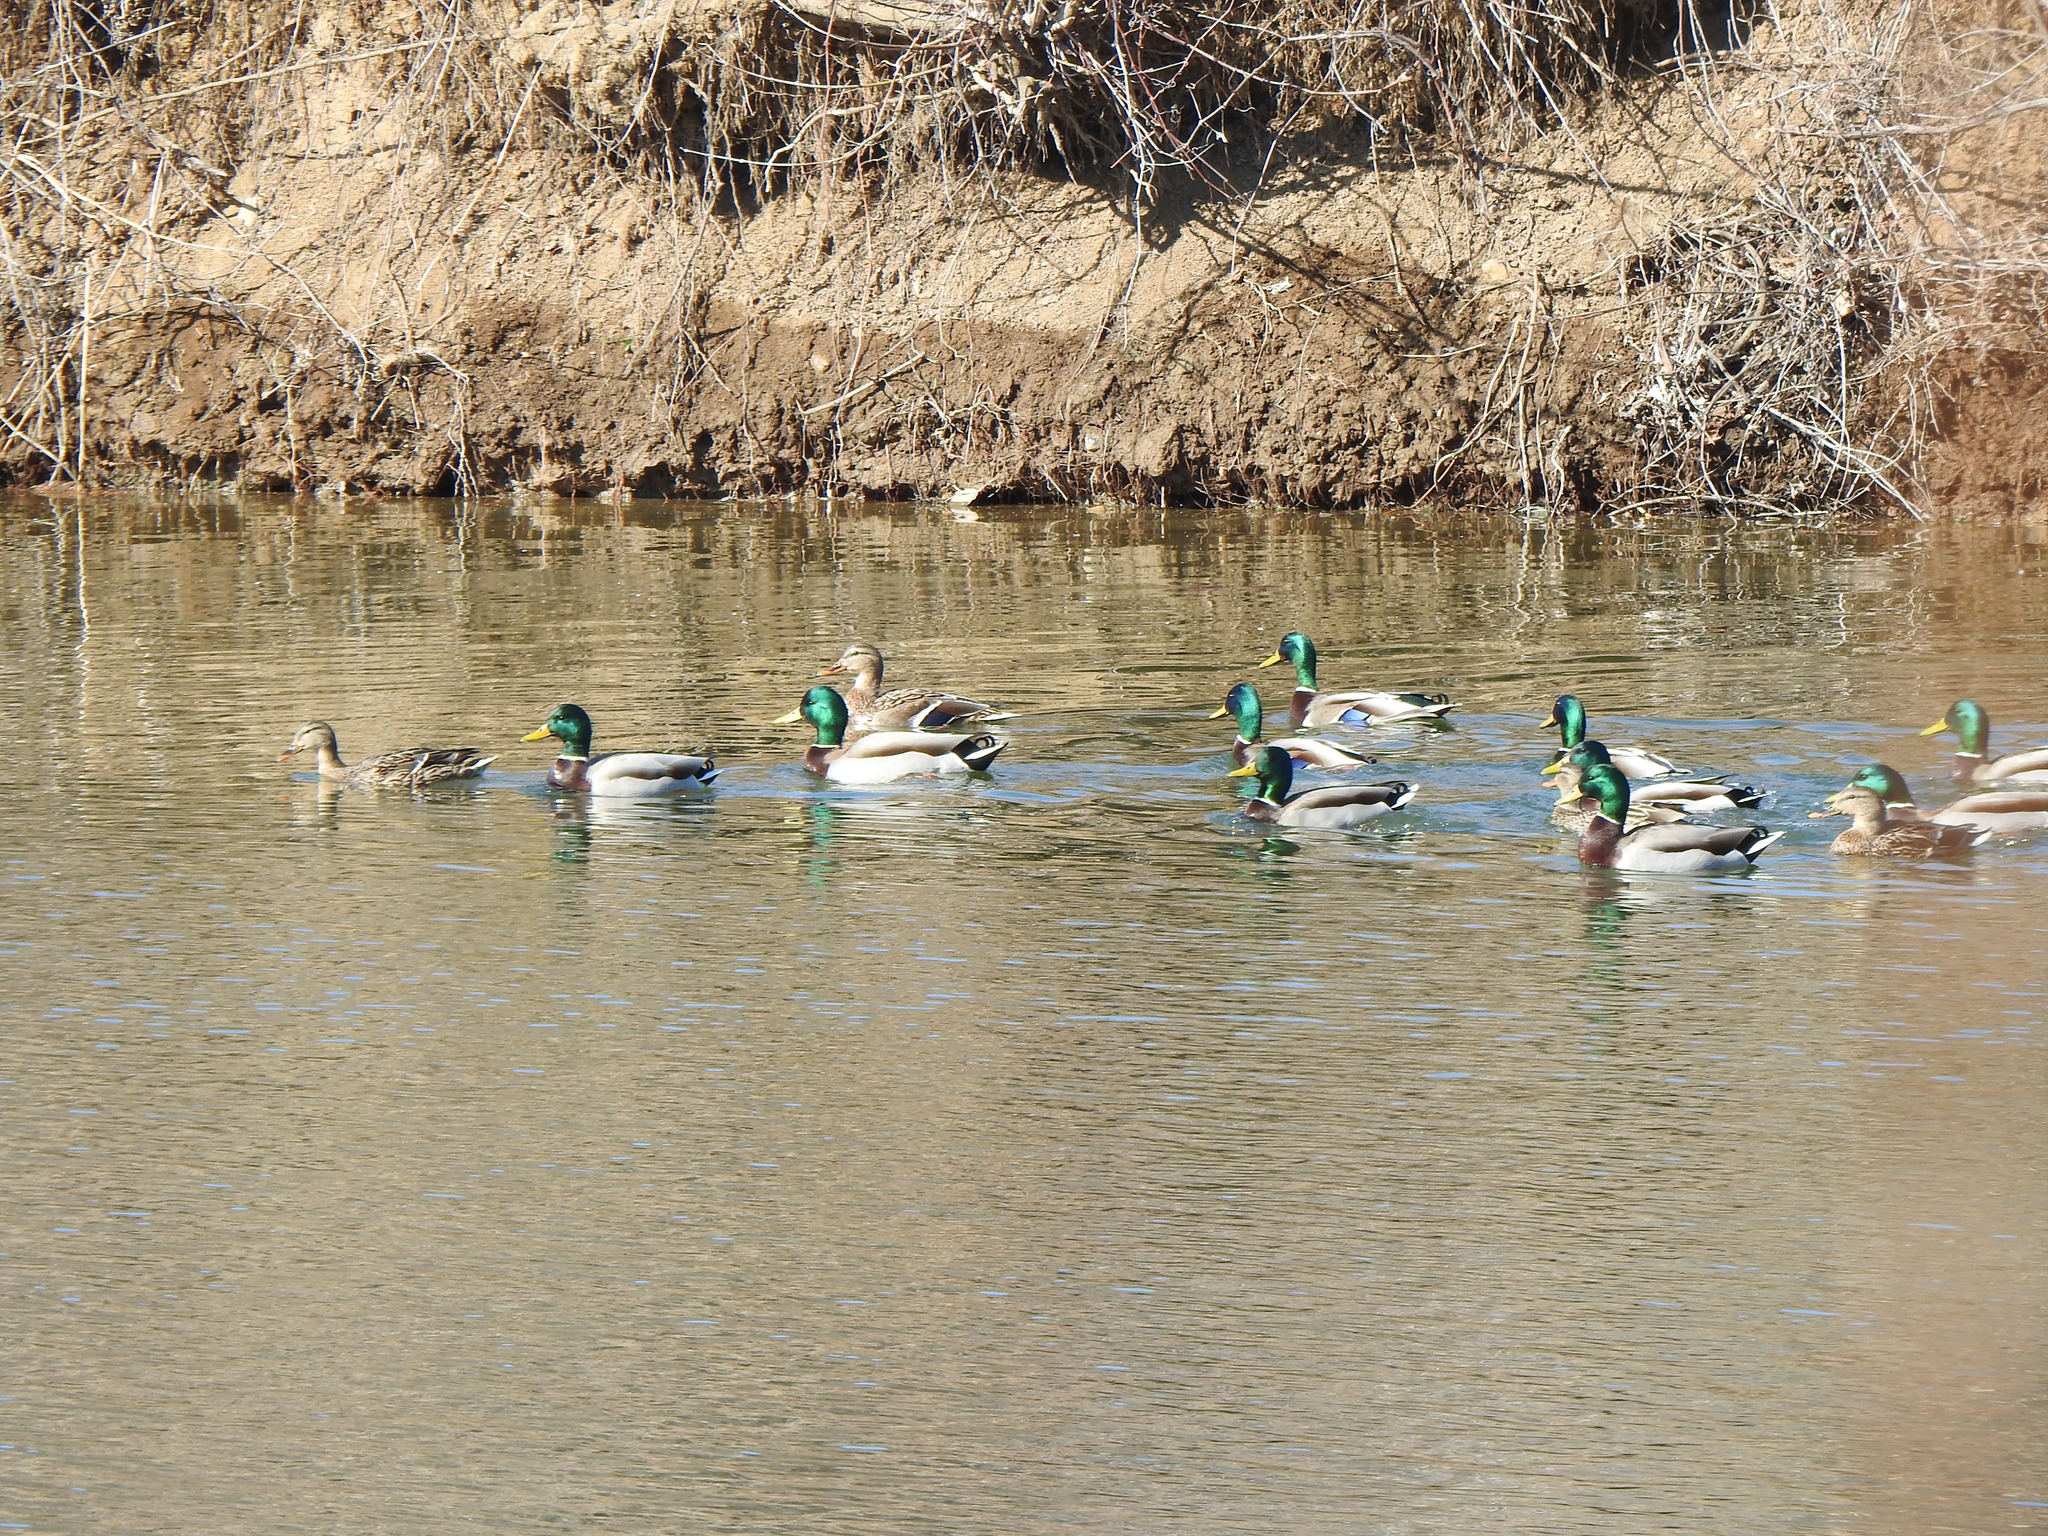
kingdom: Animalia
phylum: Chordata
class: Aves
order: Anseriformes
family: Anatidae
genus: Anas
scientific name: Anas platyrhynchos
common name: Mallard
